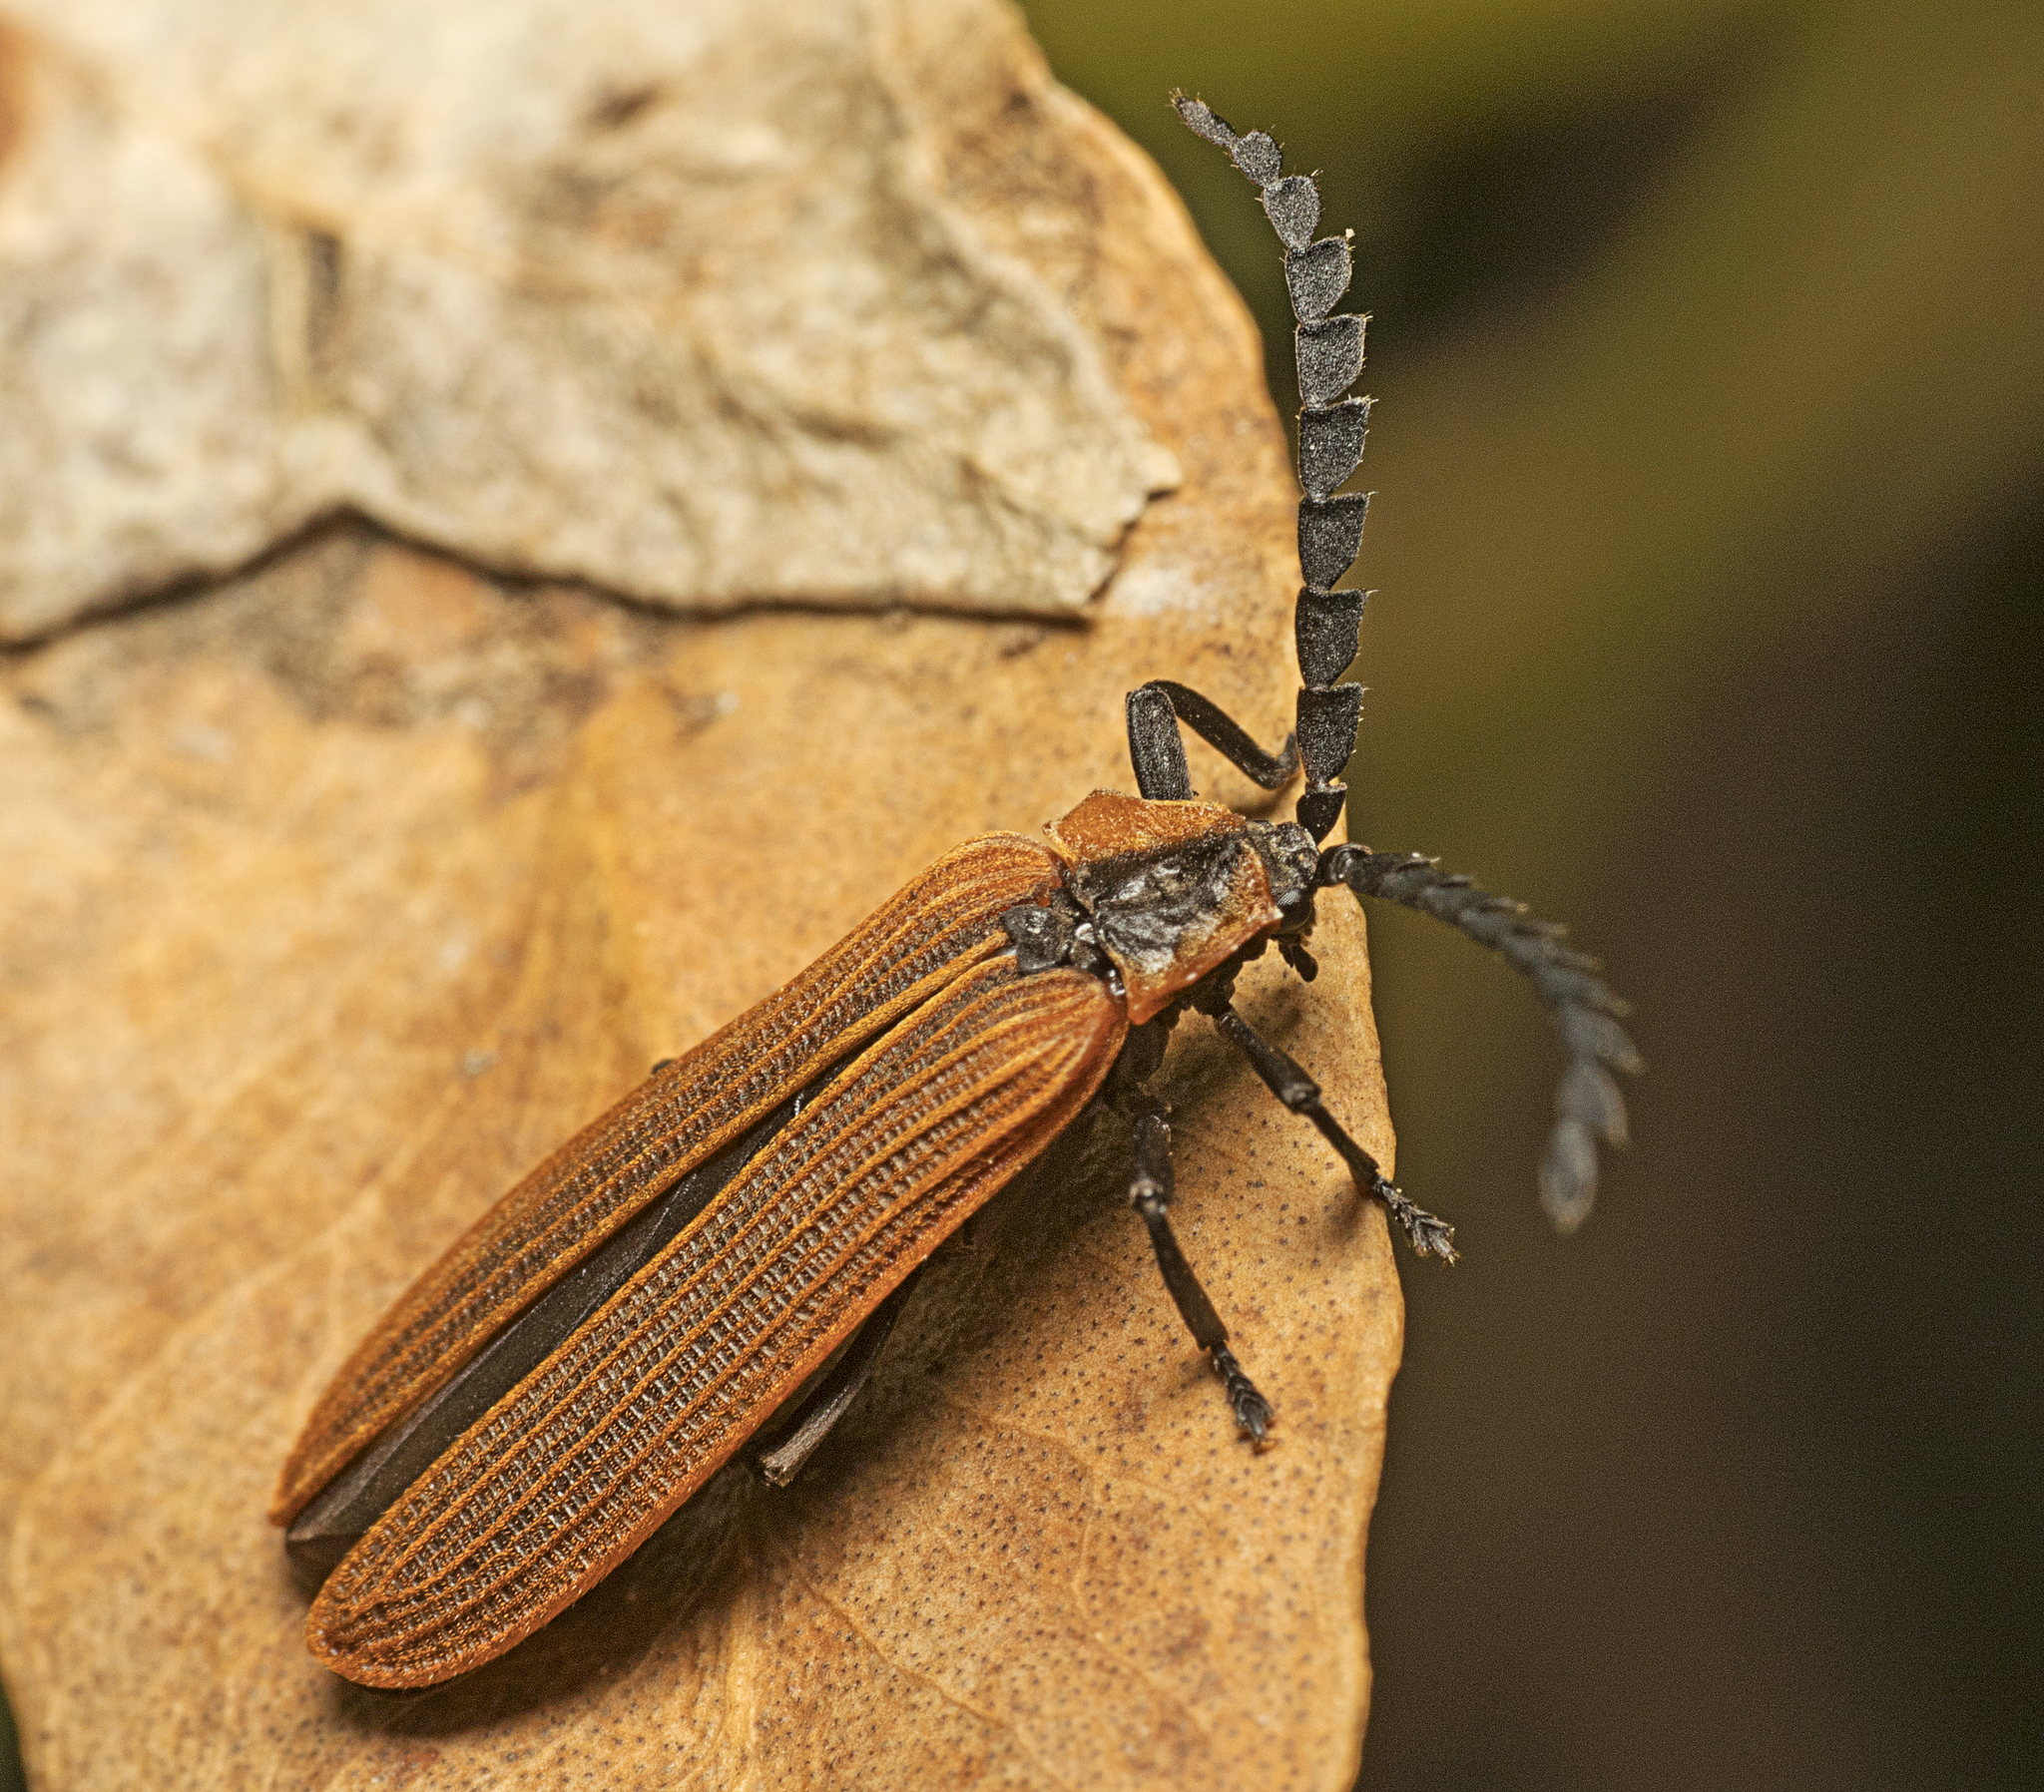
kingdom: Animalia
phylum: Arthropoda
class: Insecta
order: Coleoptera
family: Lycidae
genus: Trichalus
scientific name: Trichalus
